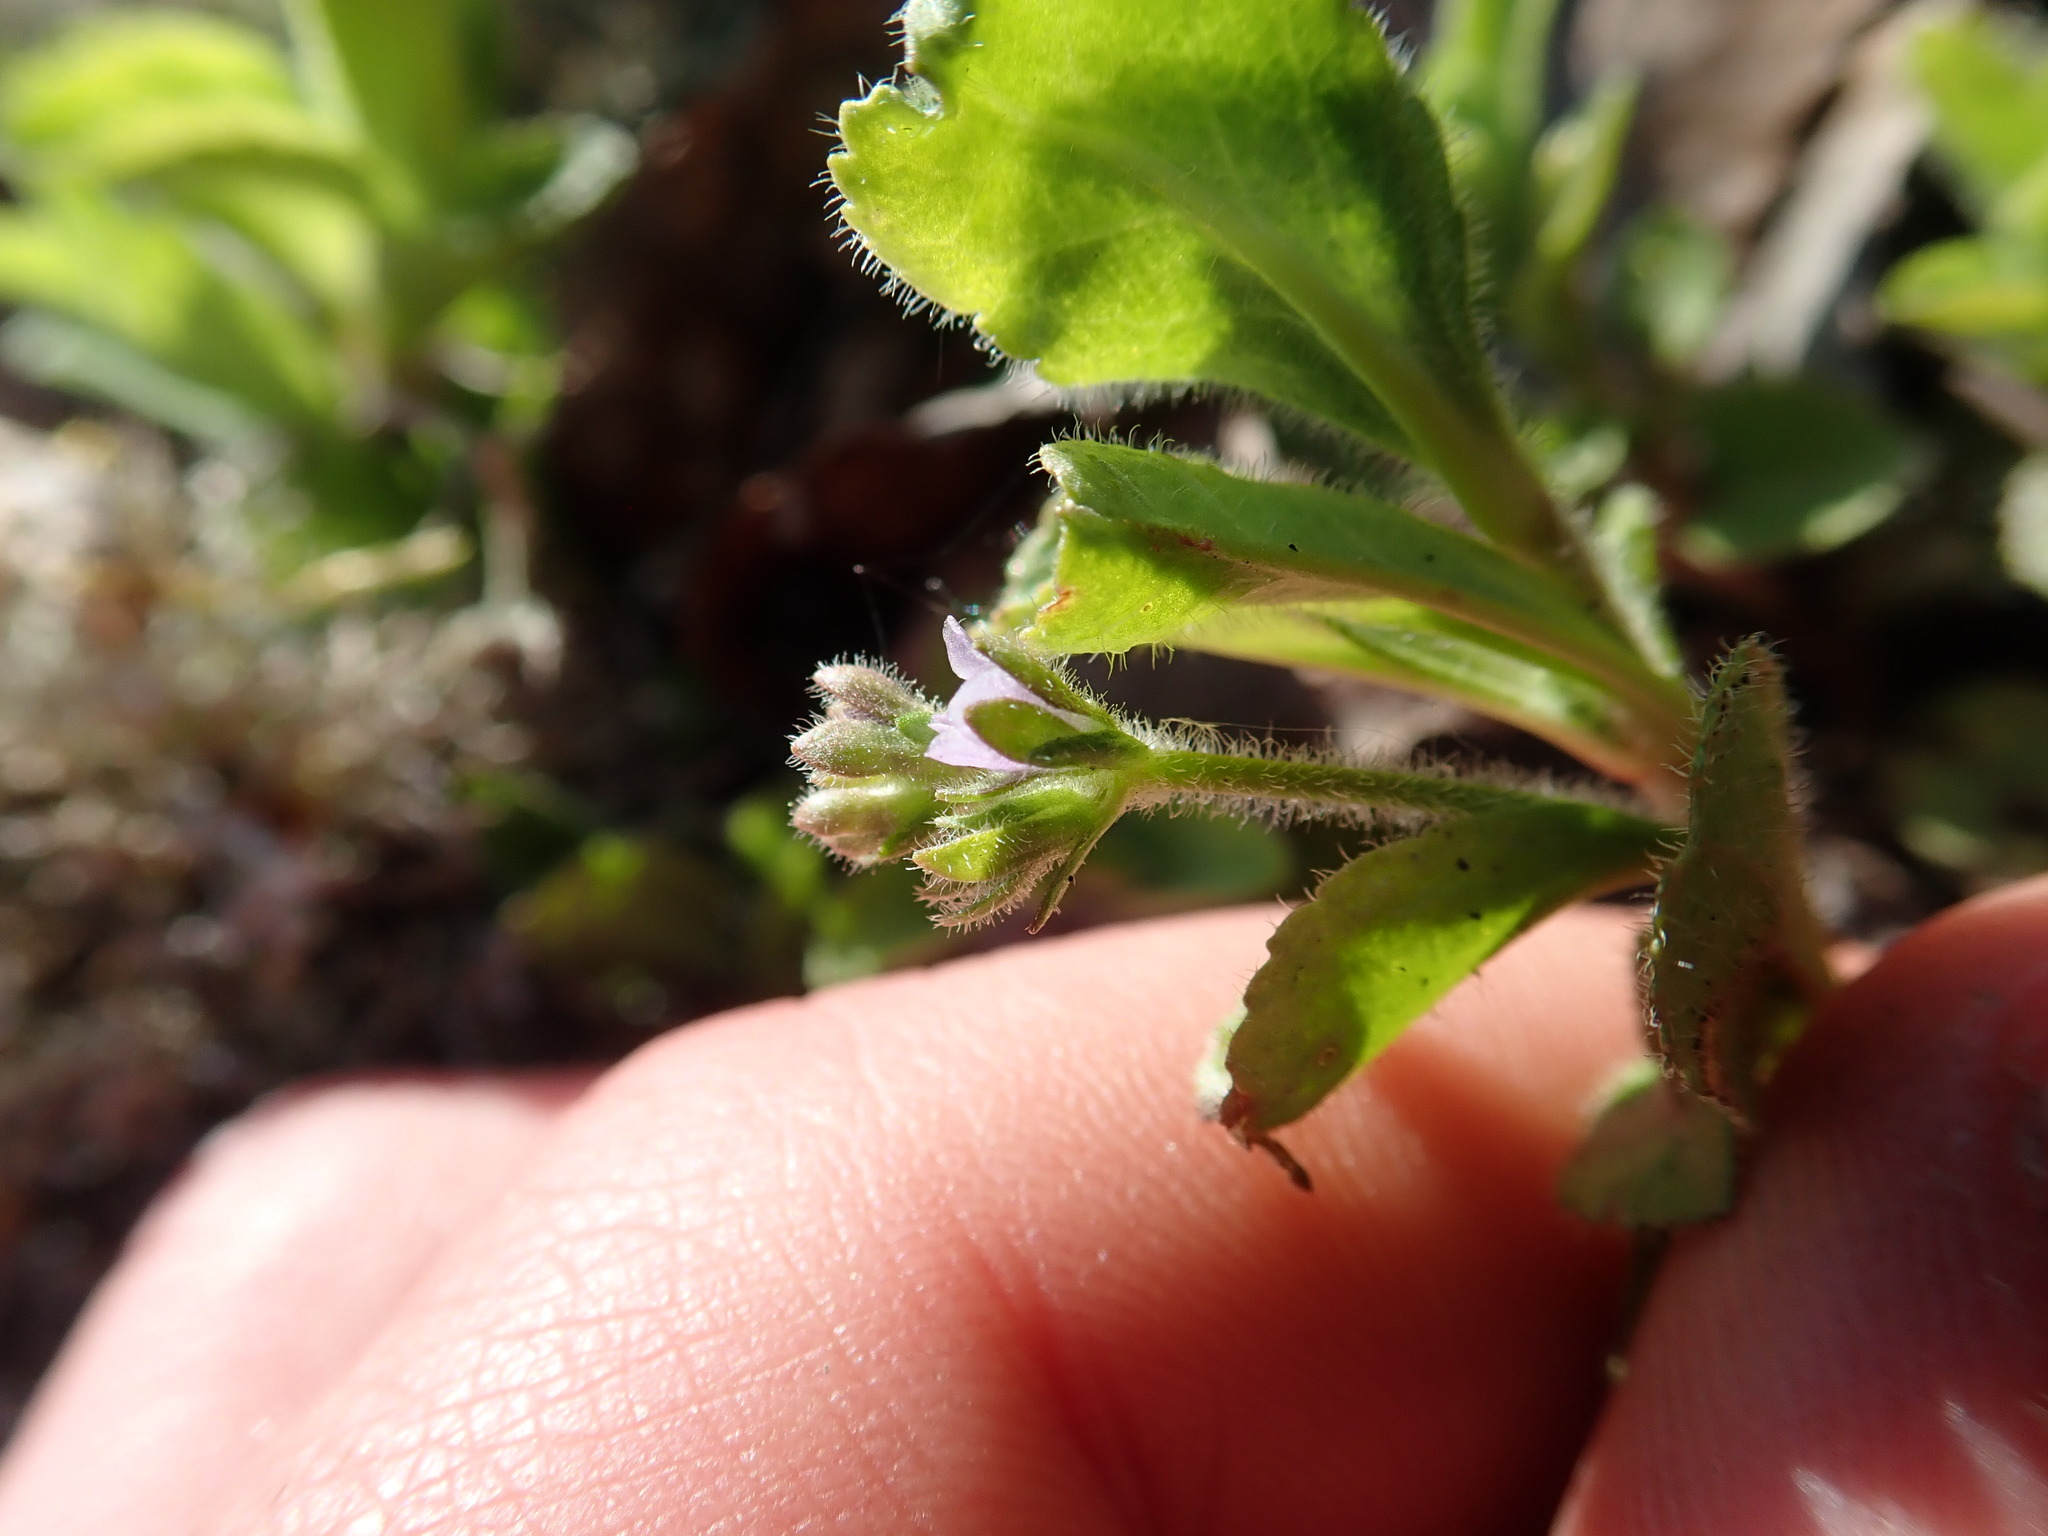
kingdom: Plantae
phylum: Tracheophyta
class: Magnoliopsida
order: Lamiales
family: Plantaginaceae
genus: Veronica
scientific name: Veronica officinalis
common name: Common speedwell
